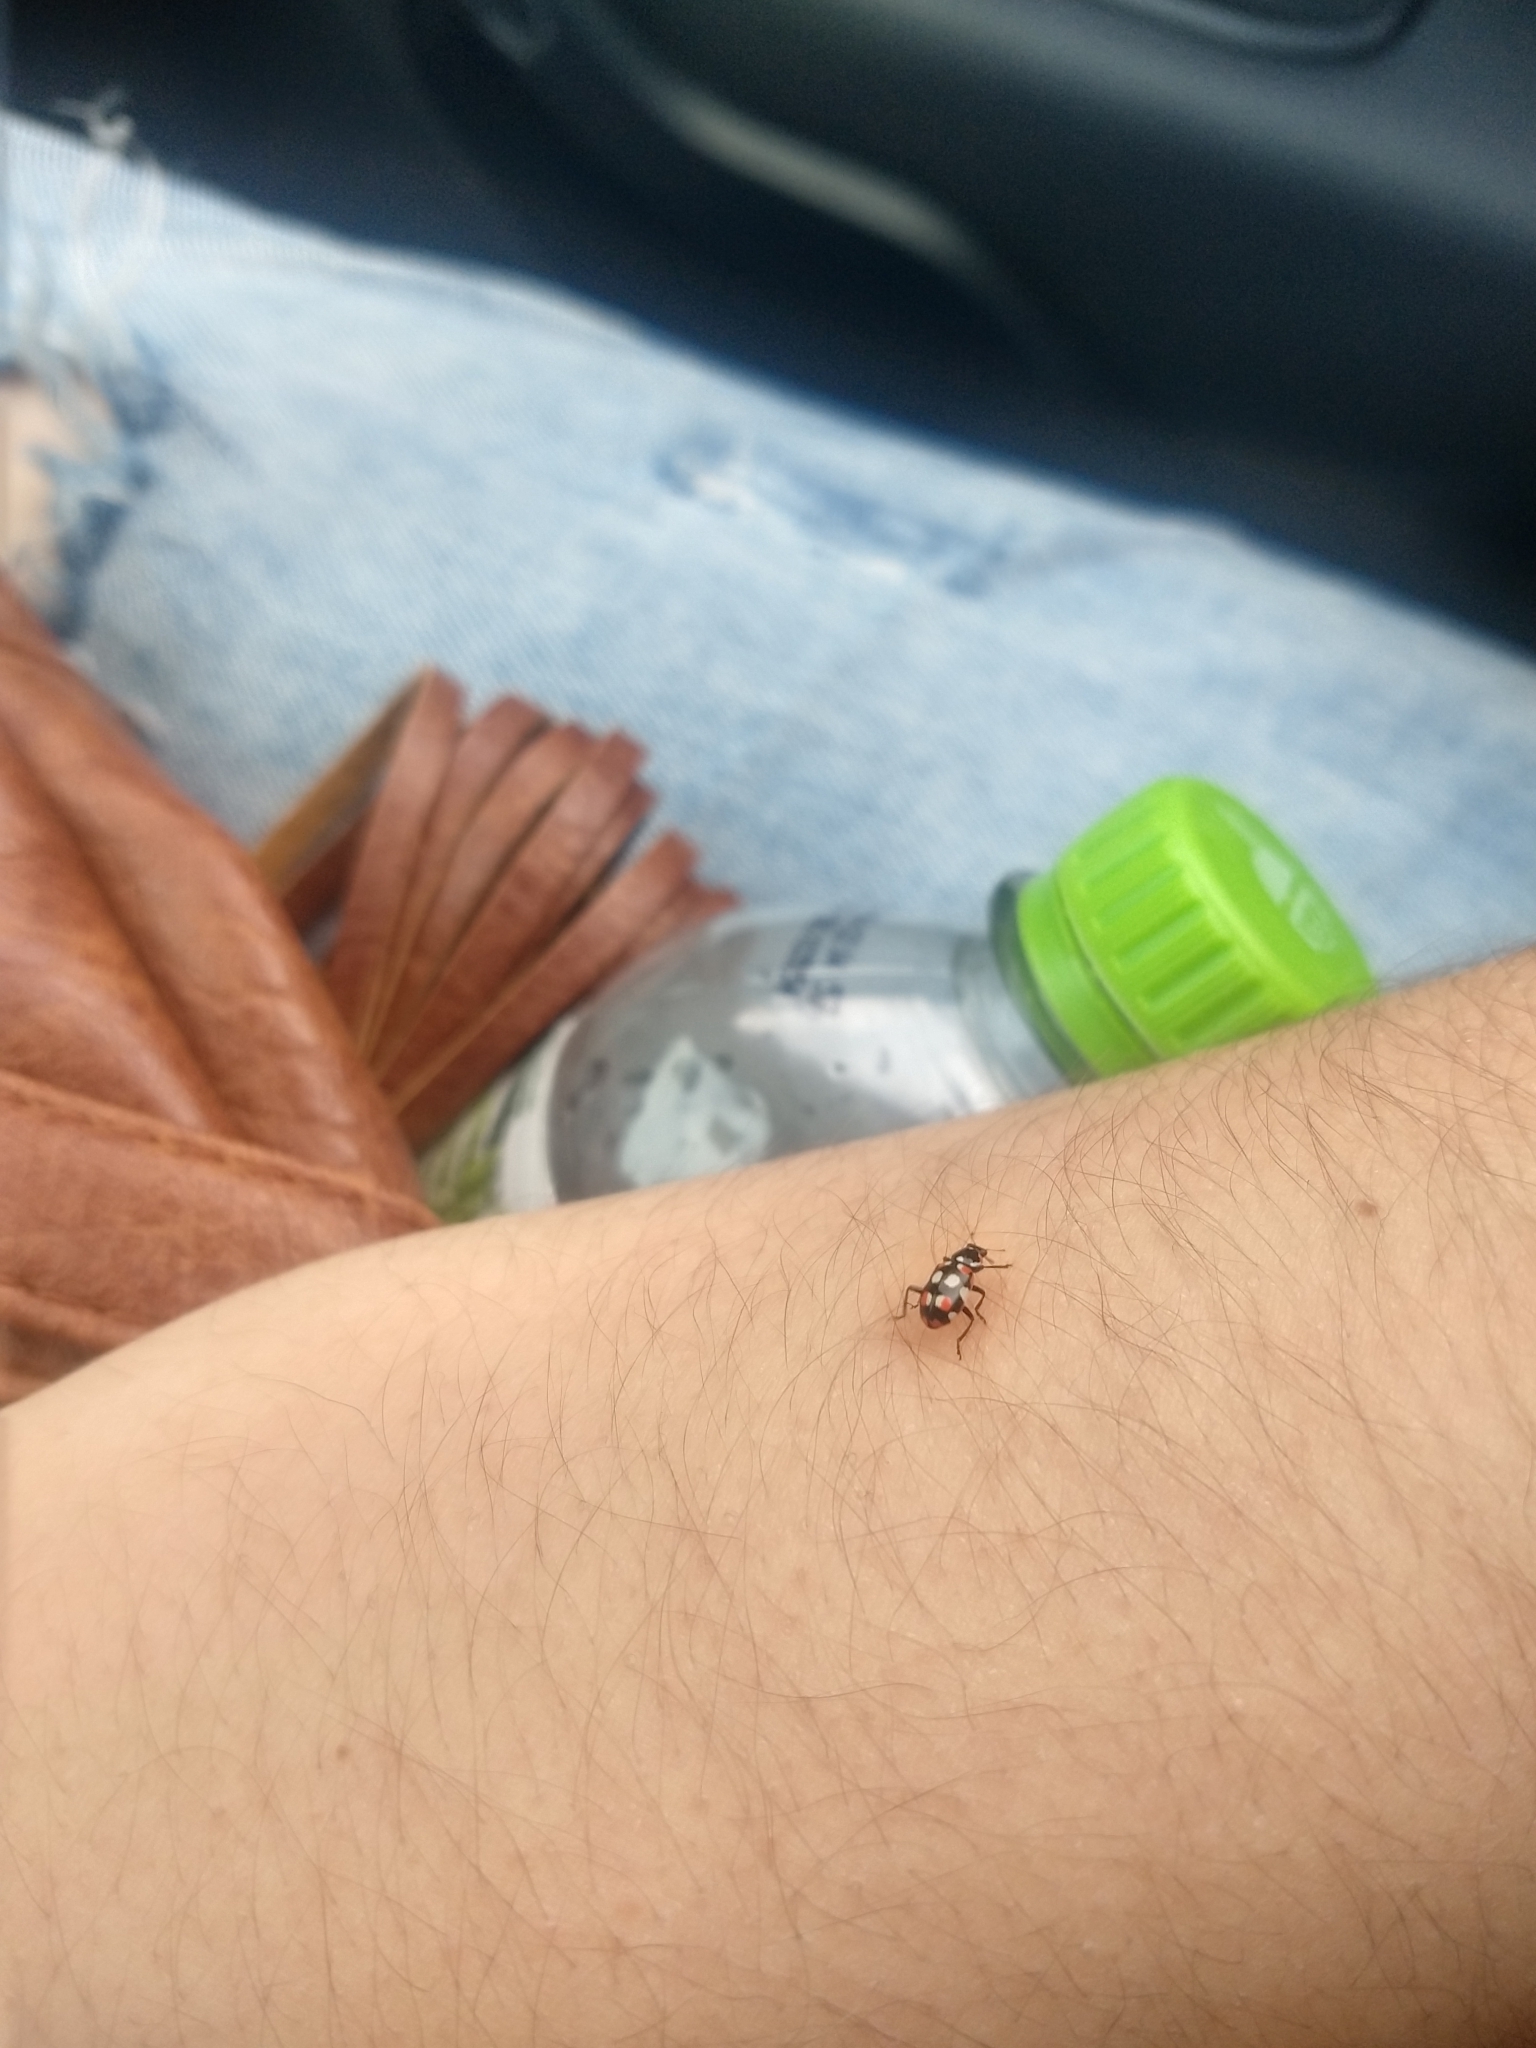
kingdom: Animalia
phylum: Arthropoda
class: Insecta
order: Coleoptera
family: Coccinellidae
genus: Eriopis
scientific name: Eriopis connexa
